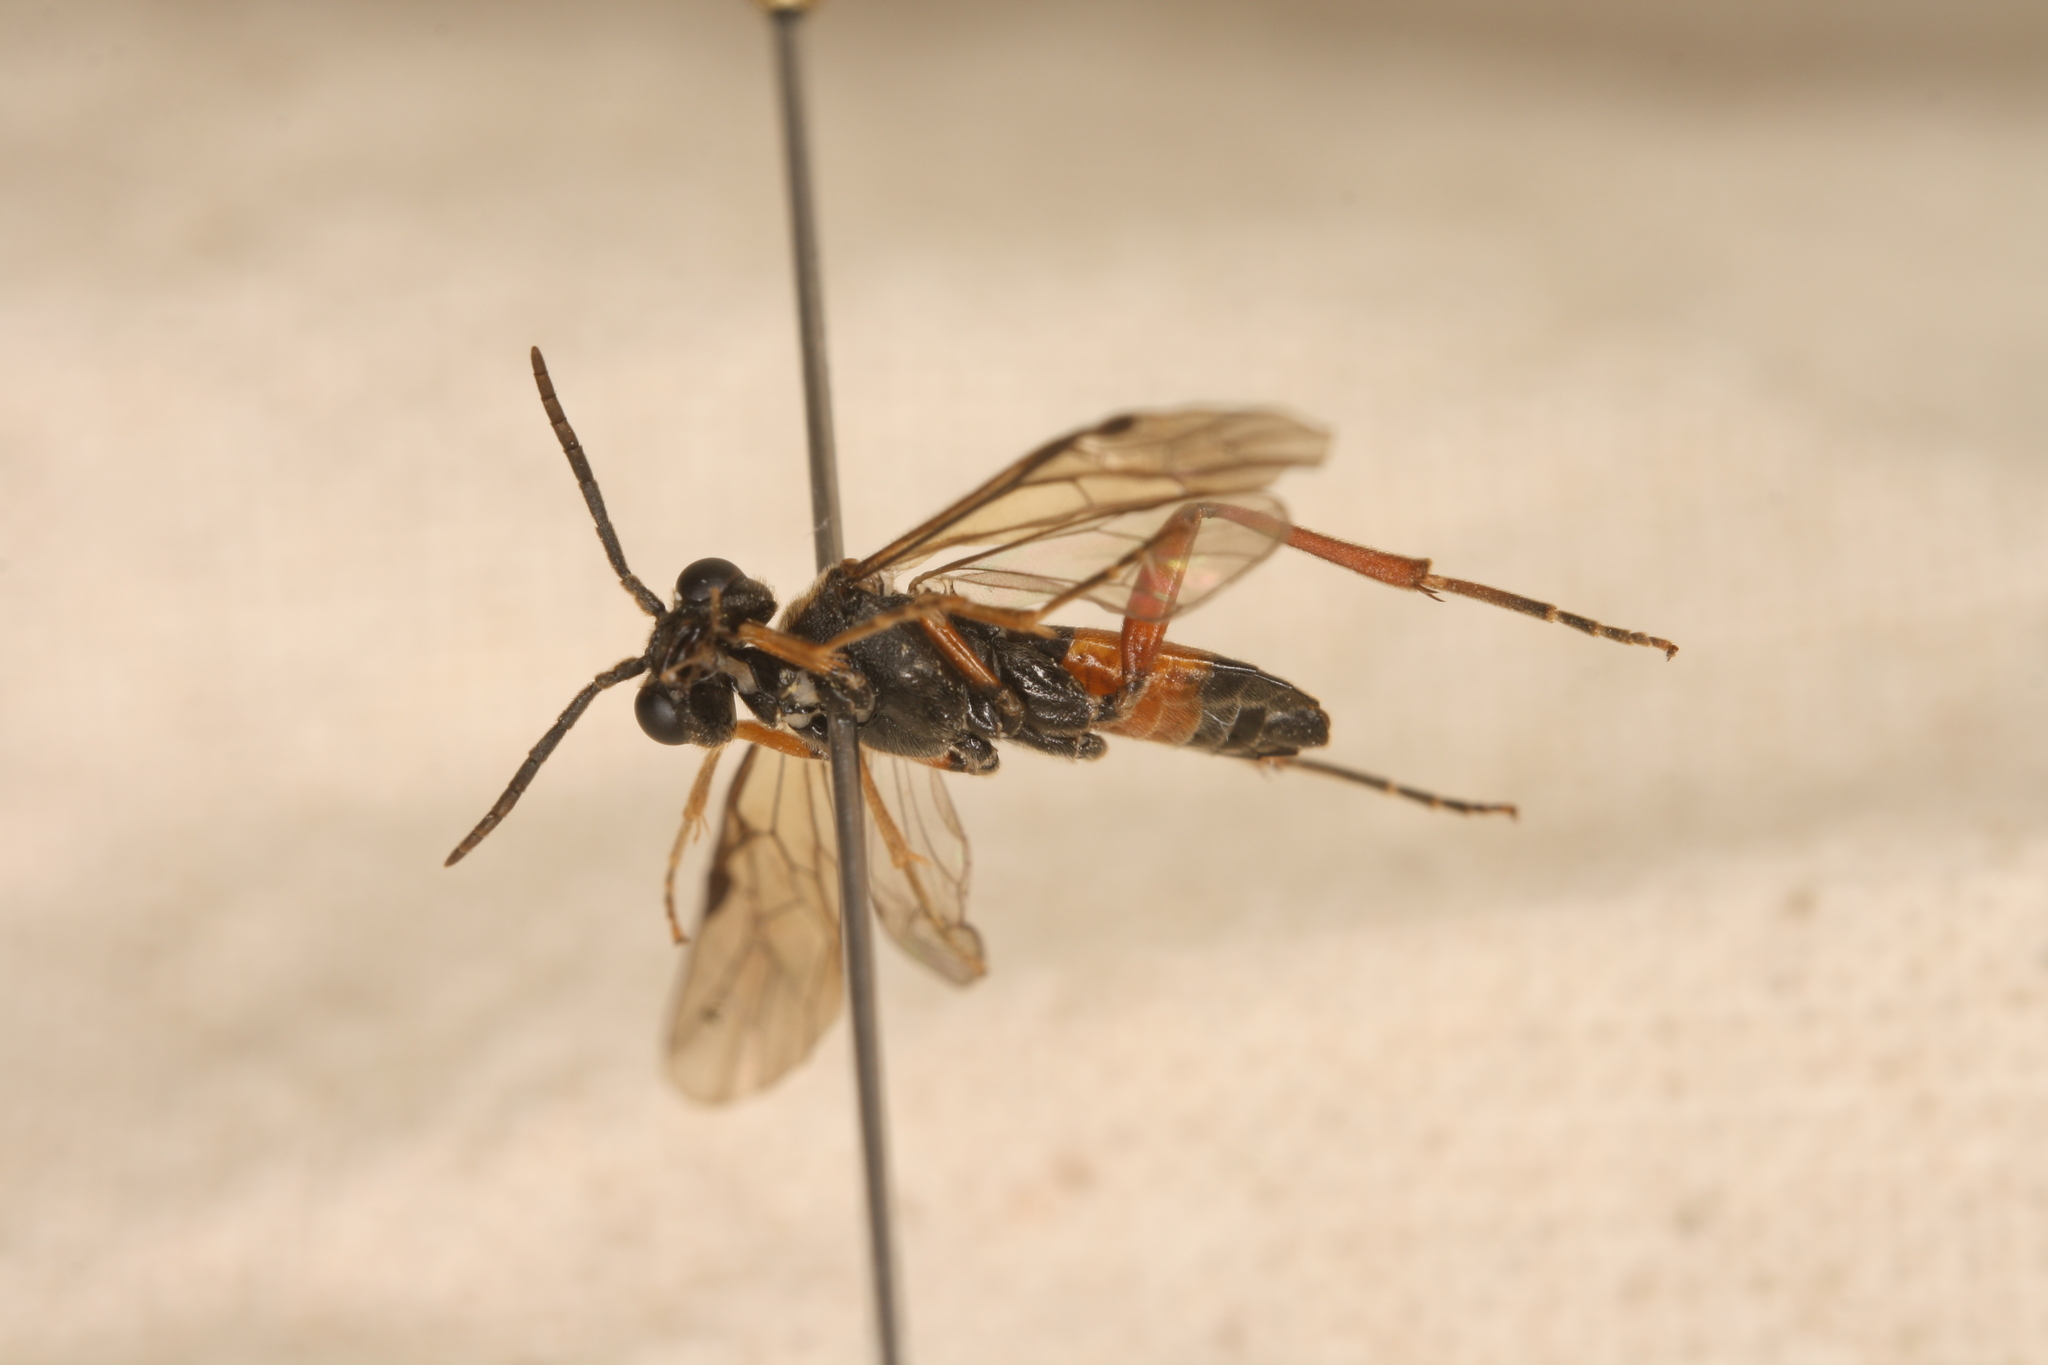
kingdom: Animalia
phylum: Arthropoda
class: Insecta
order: Hymenoptera
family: Tenthredinidae
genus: Taxonus
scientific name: Taxonus agrorum
